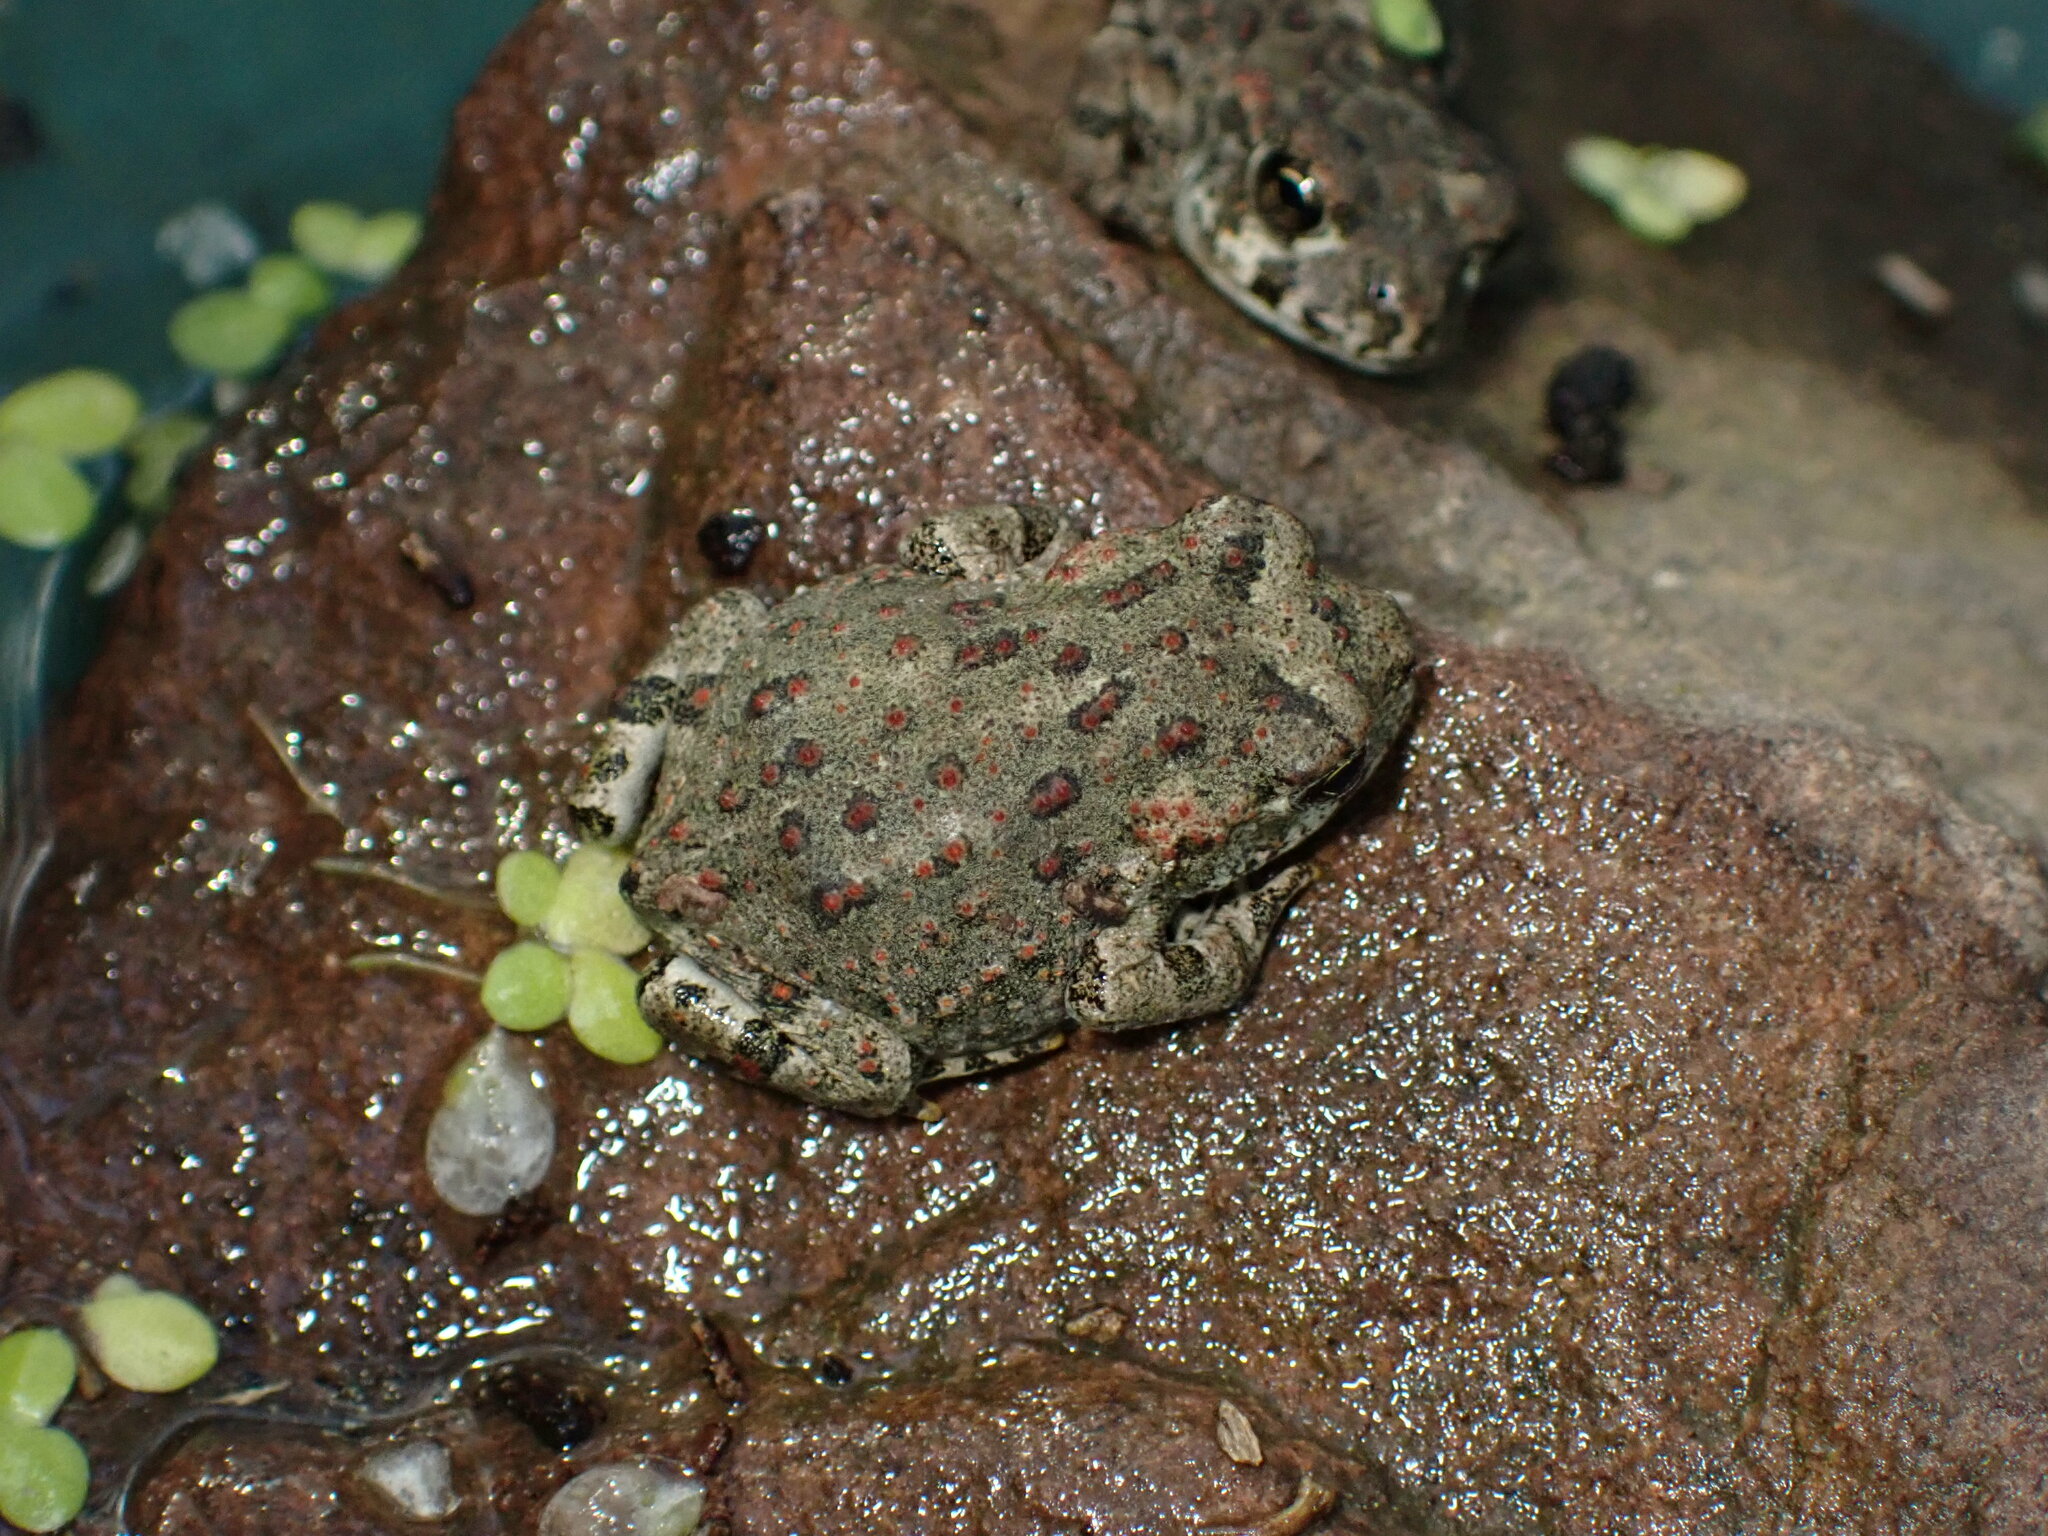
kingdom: Animalia
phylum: Chordata
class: Amphibia
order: Anura
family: Bufonidae
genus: Anaxyrus
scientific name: Anaxyrus boreas
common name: Western toad
